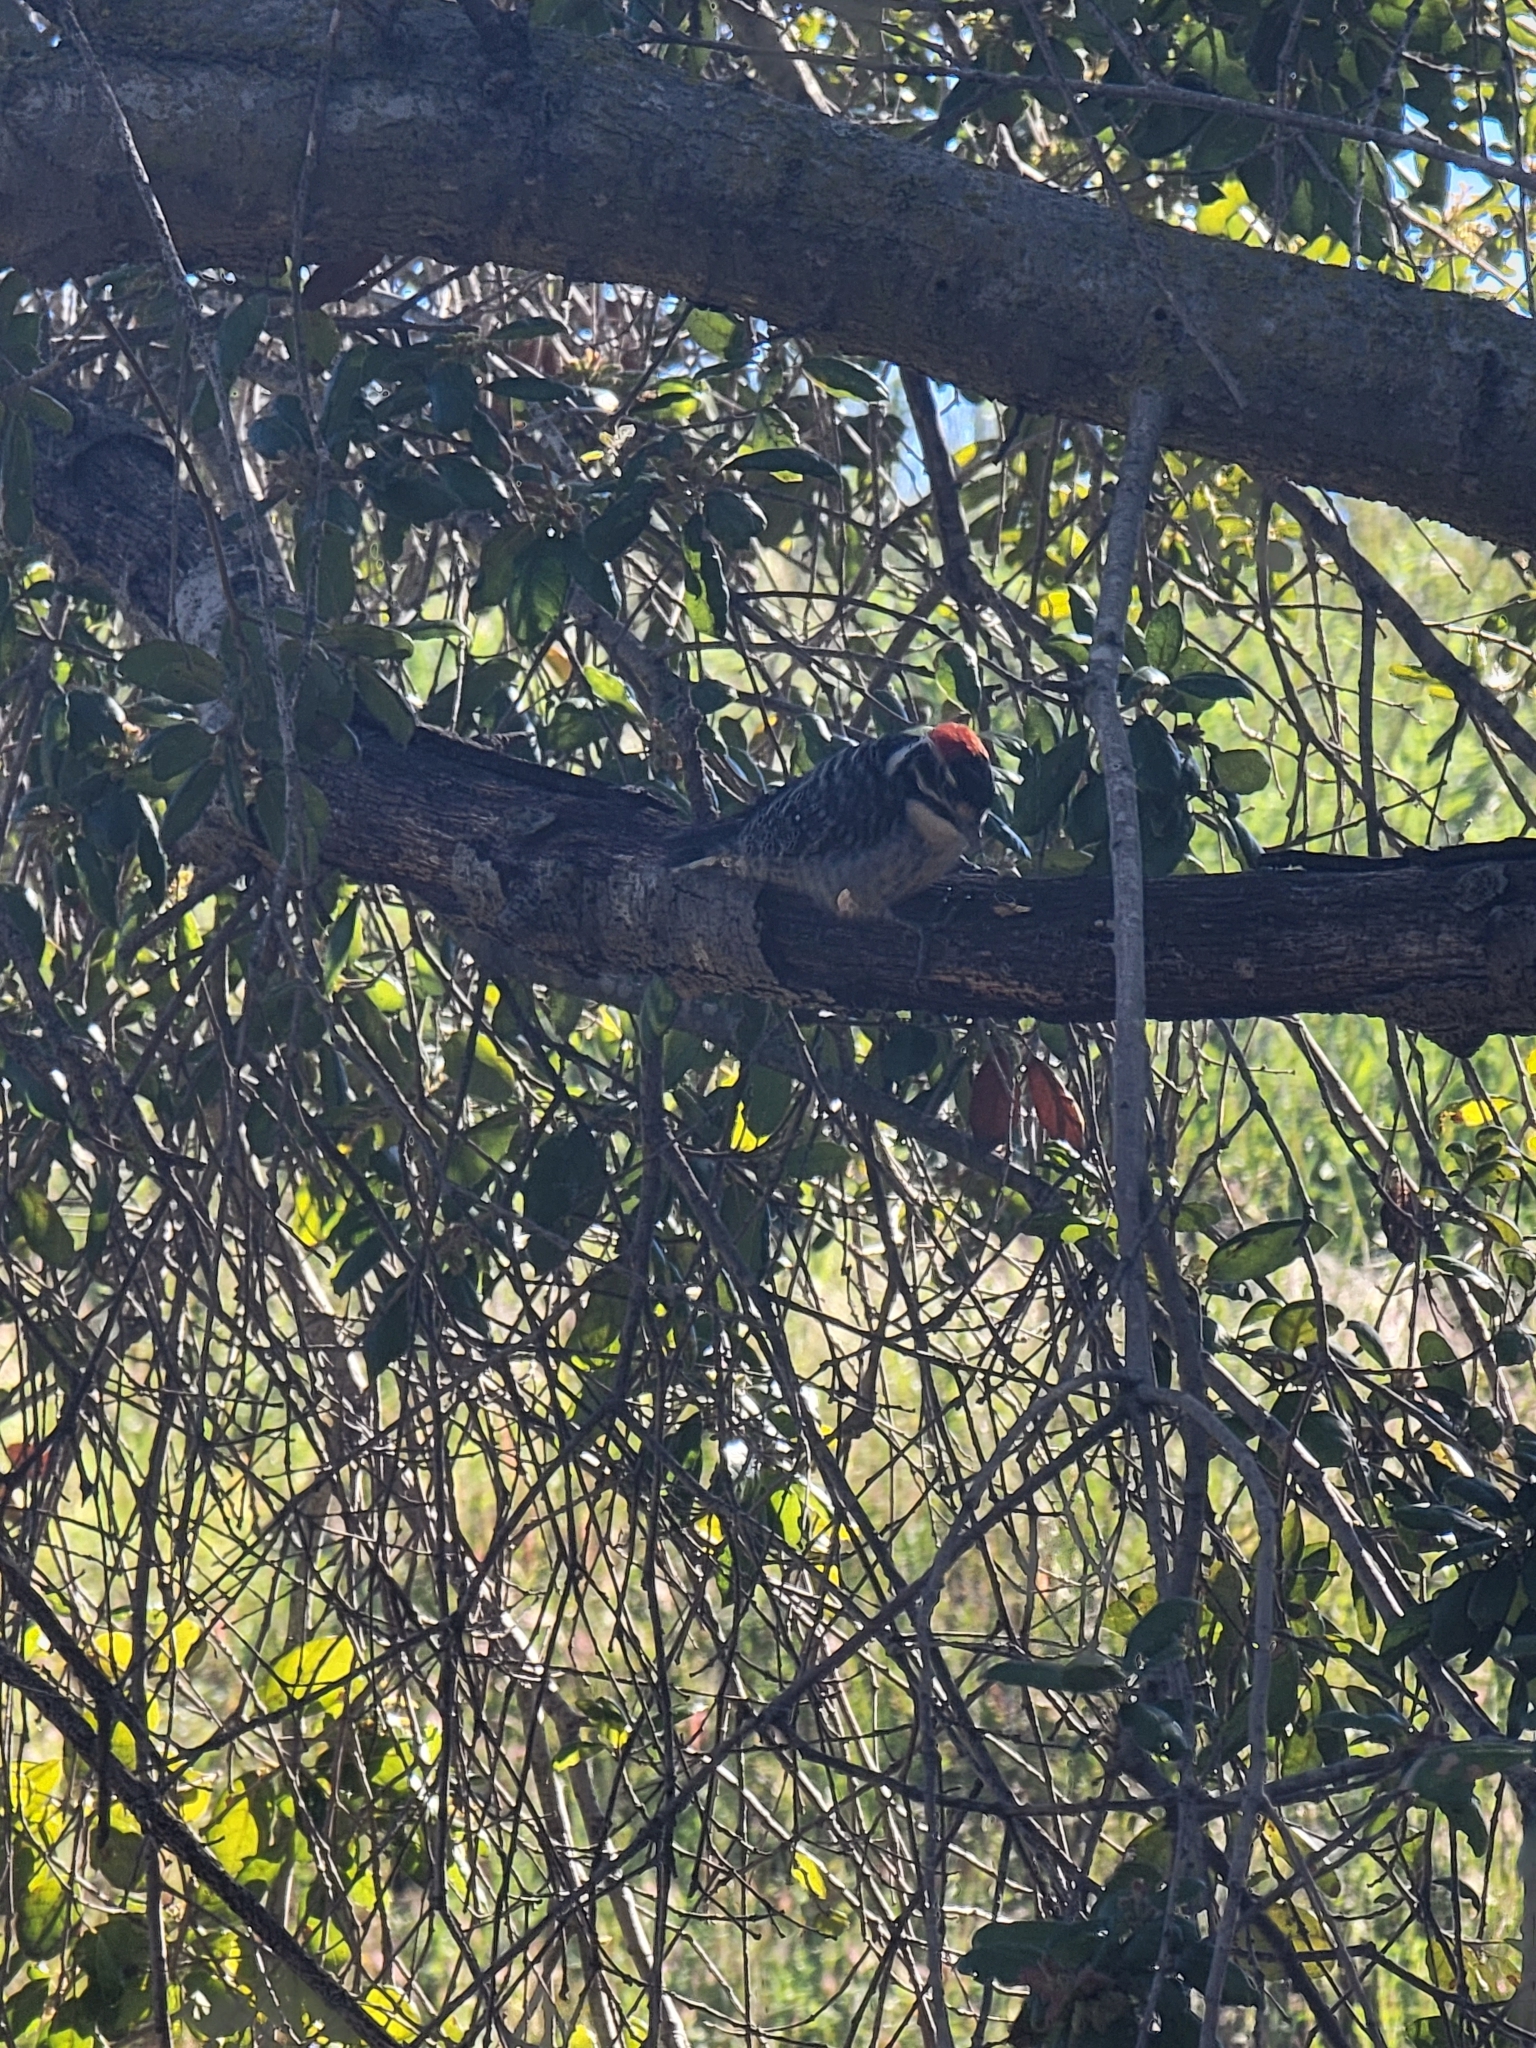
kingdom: Animalia
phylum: Chordata
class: Aves
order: Piciformes
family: Picidae
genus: Dryobates
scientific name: Dryobates nuttallii
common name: Nuttall's woodpecker
